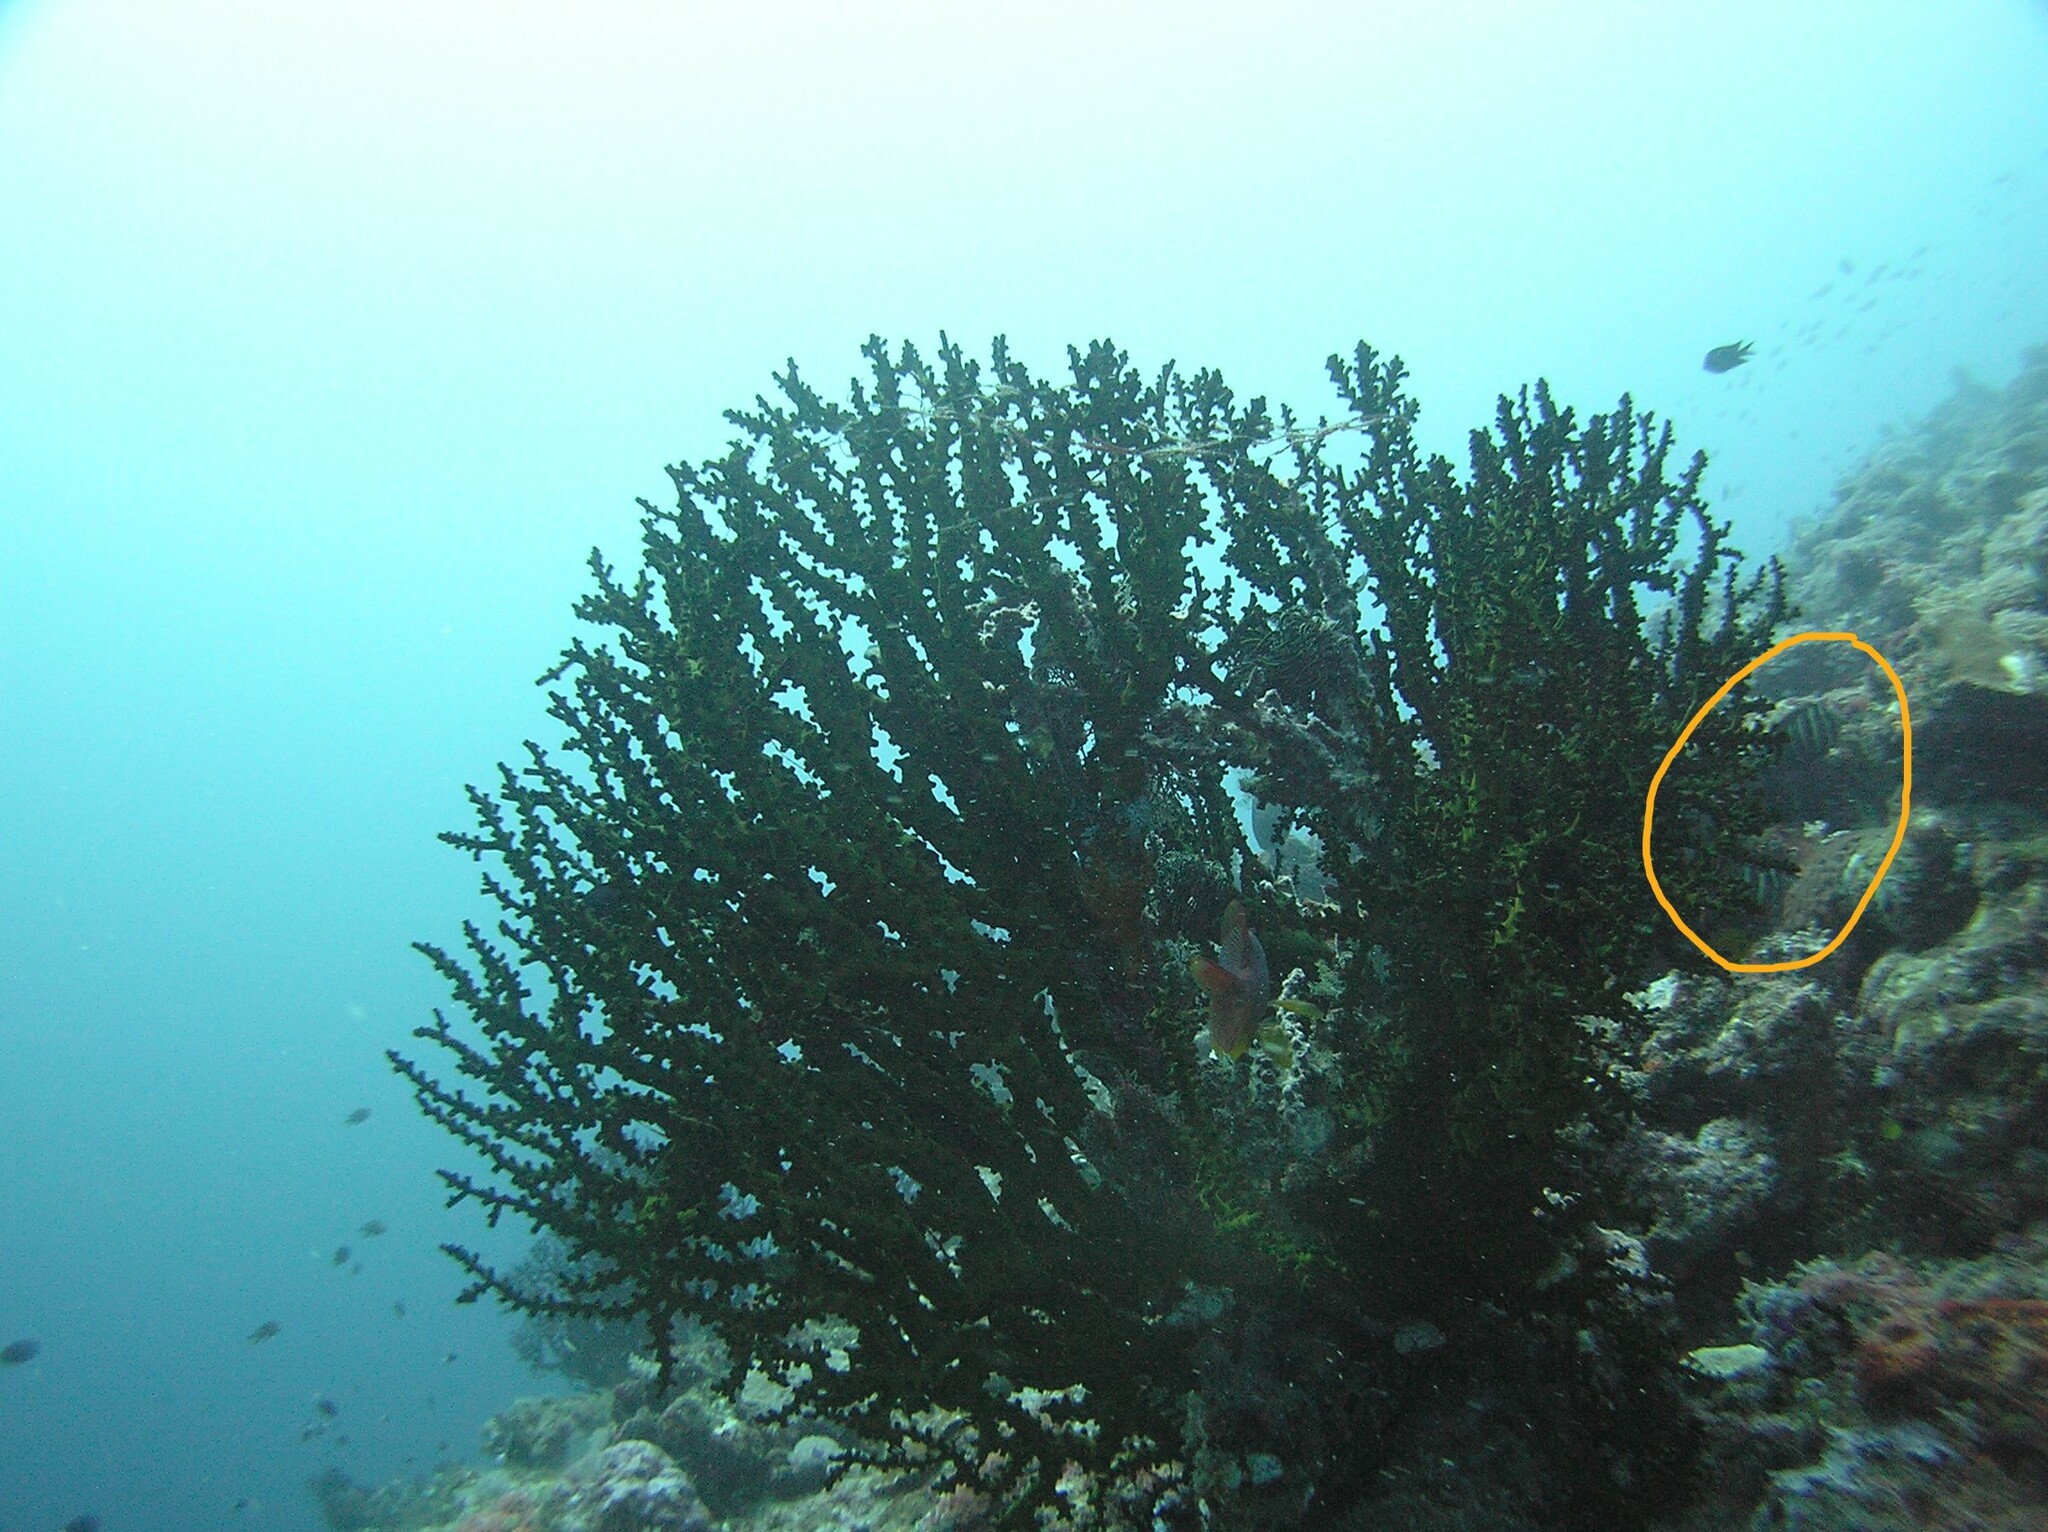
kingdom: Animalia
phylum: Chordata
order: Perciformes
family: Acanthuridae
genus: Zebrasoma
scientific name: Zebrasoma veliferum
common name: Sailfin surgeonfish
